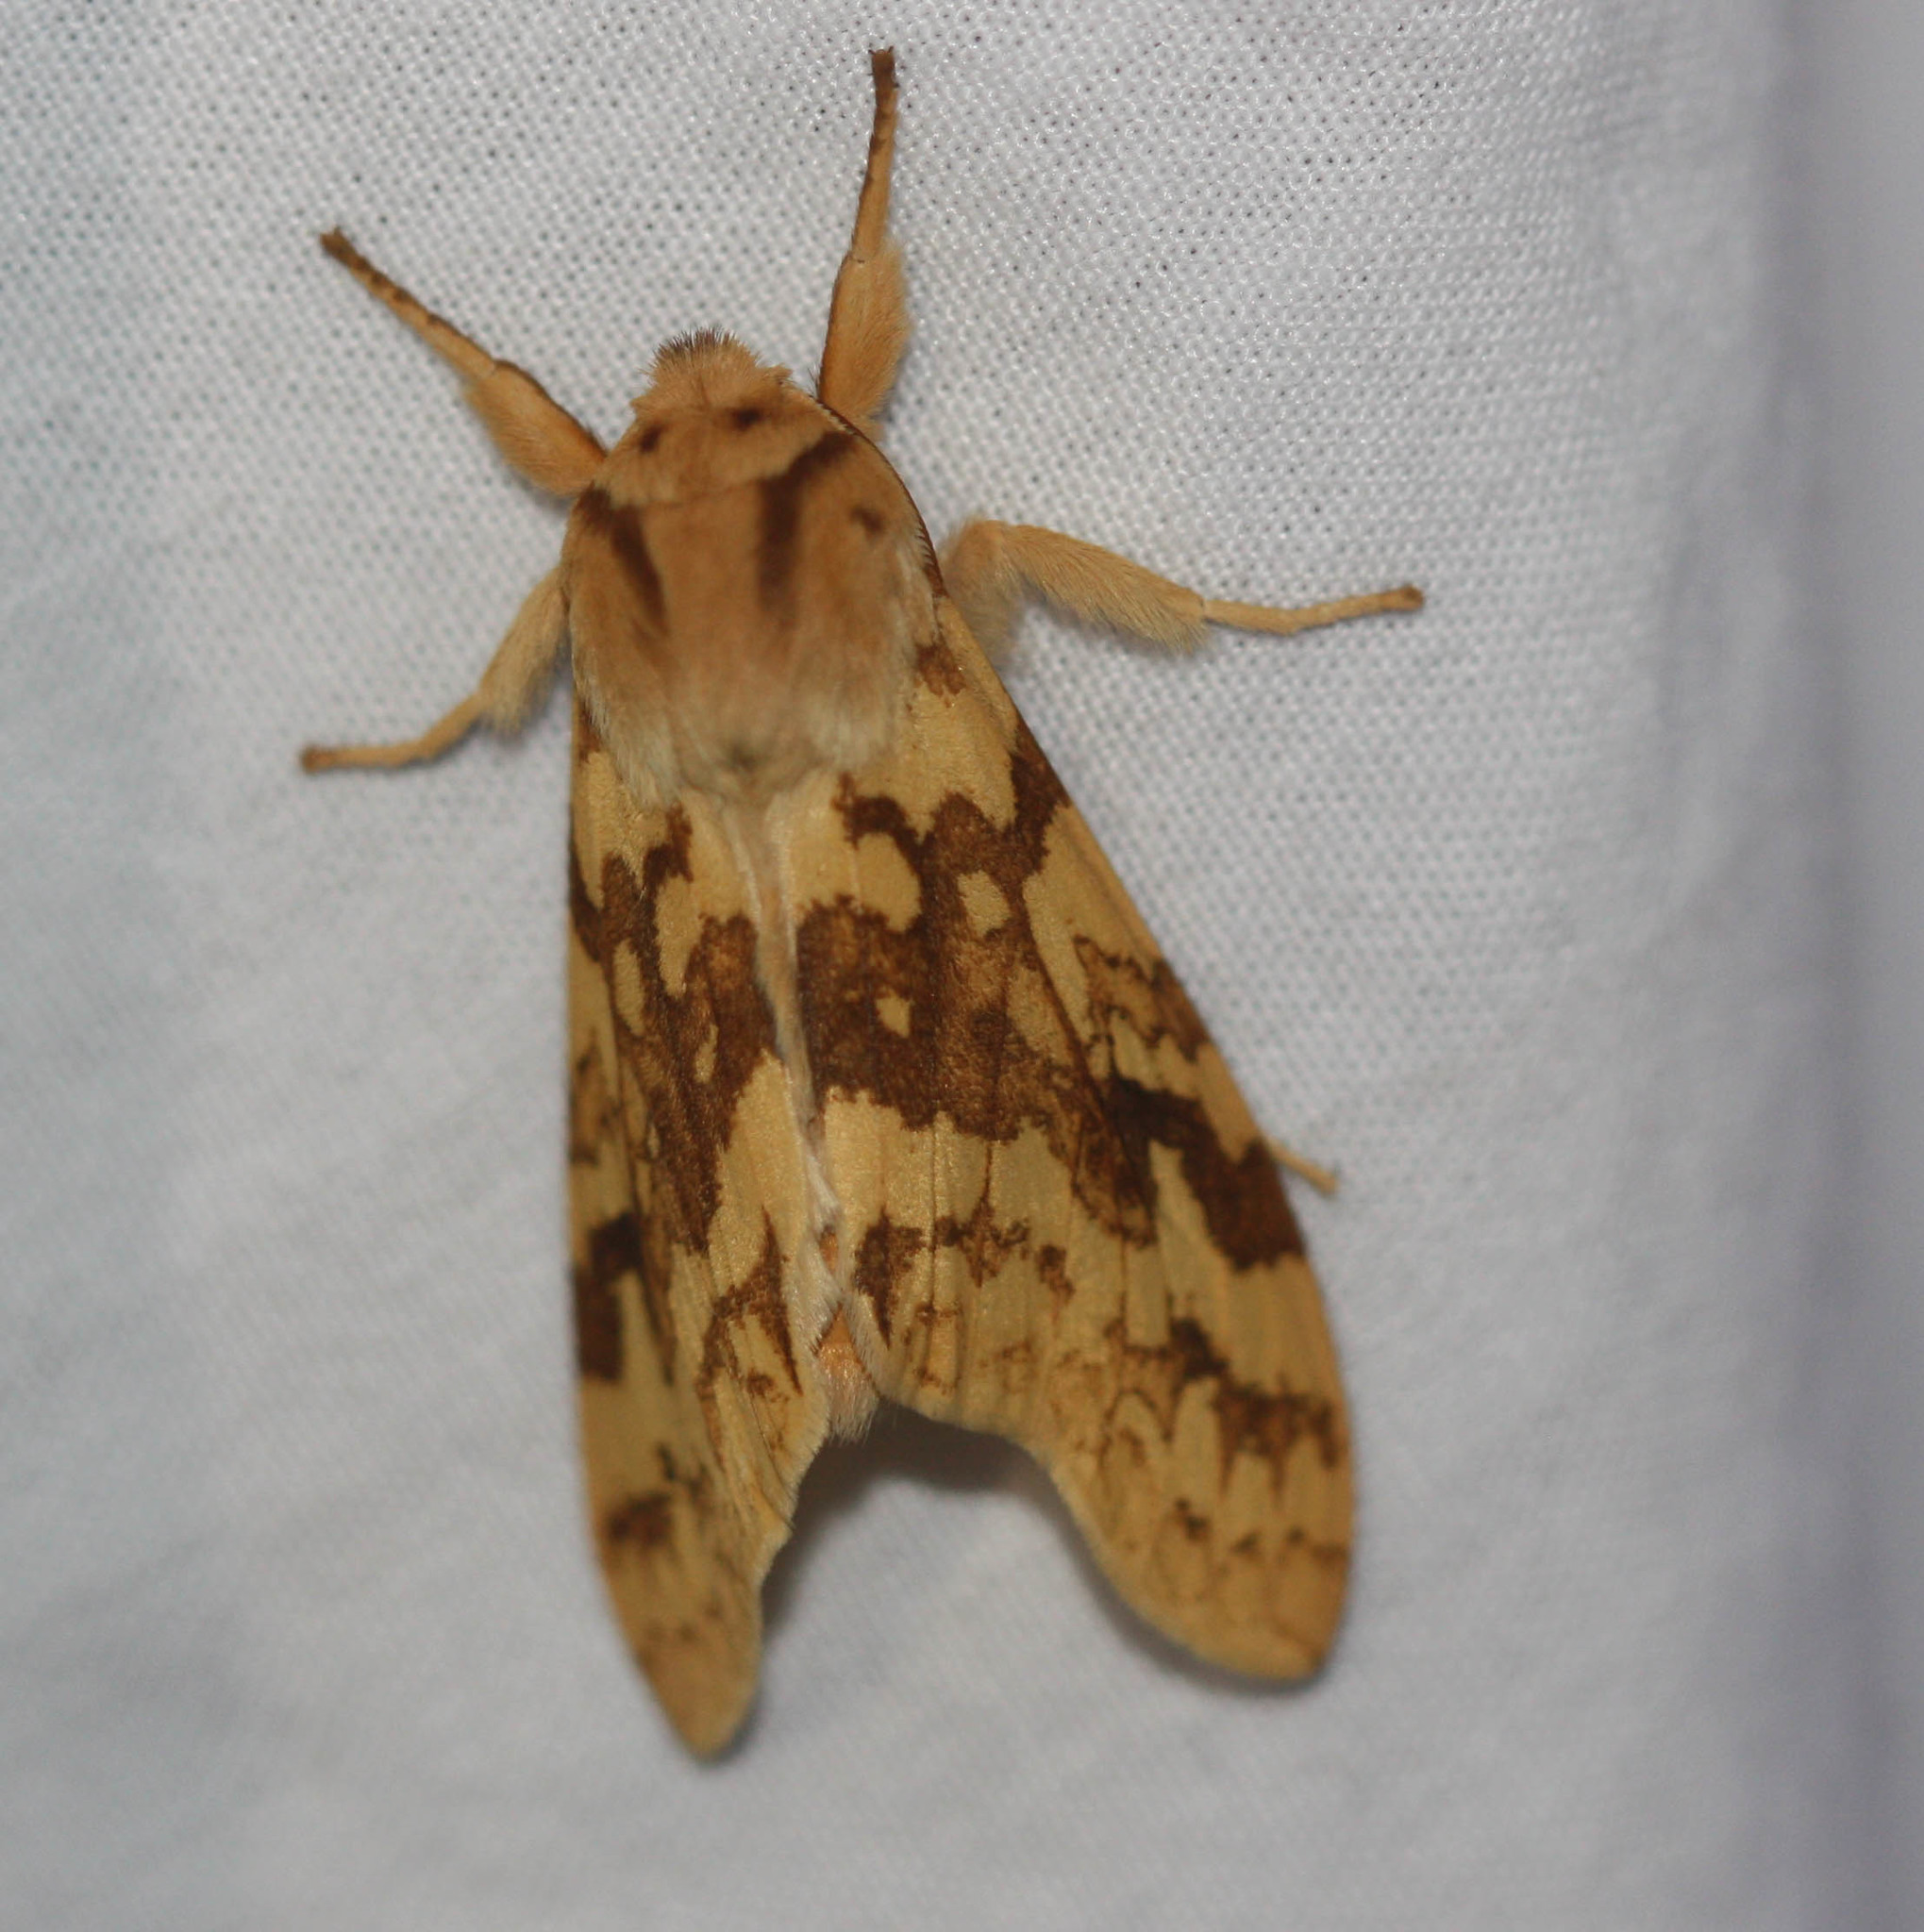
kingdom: Animalia
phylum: Arthropoda
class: Insecta
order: Lepidoptera
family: Erebidae
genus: Lophocampa
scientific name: Lophocampa maculata
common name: Spotted tussock moth
